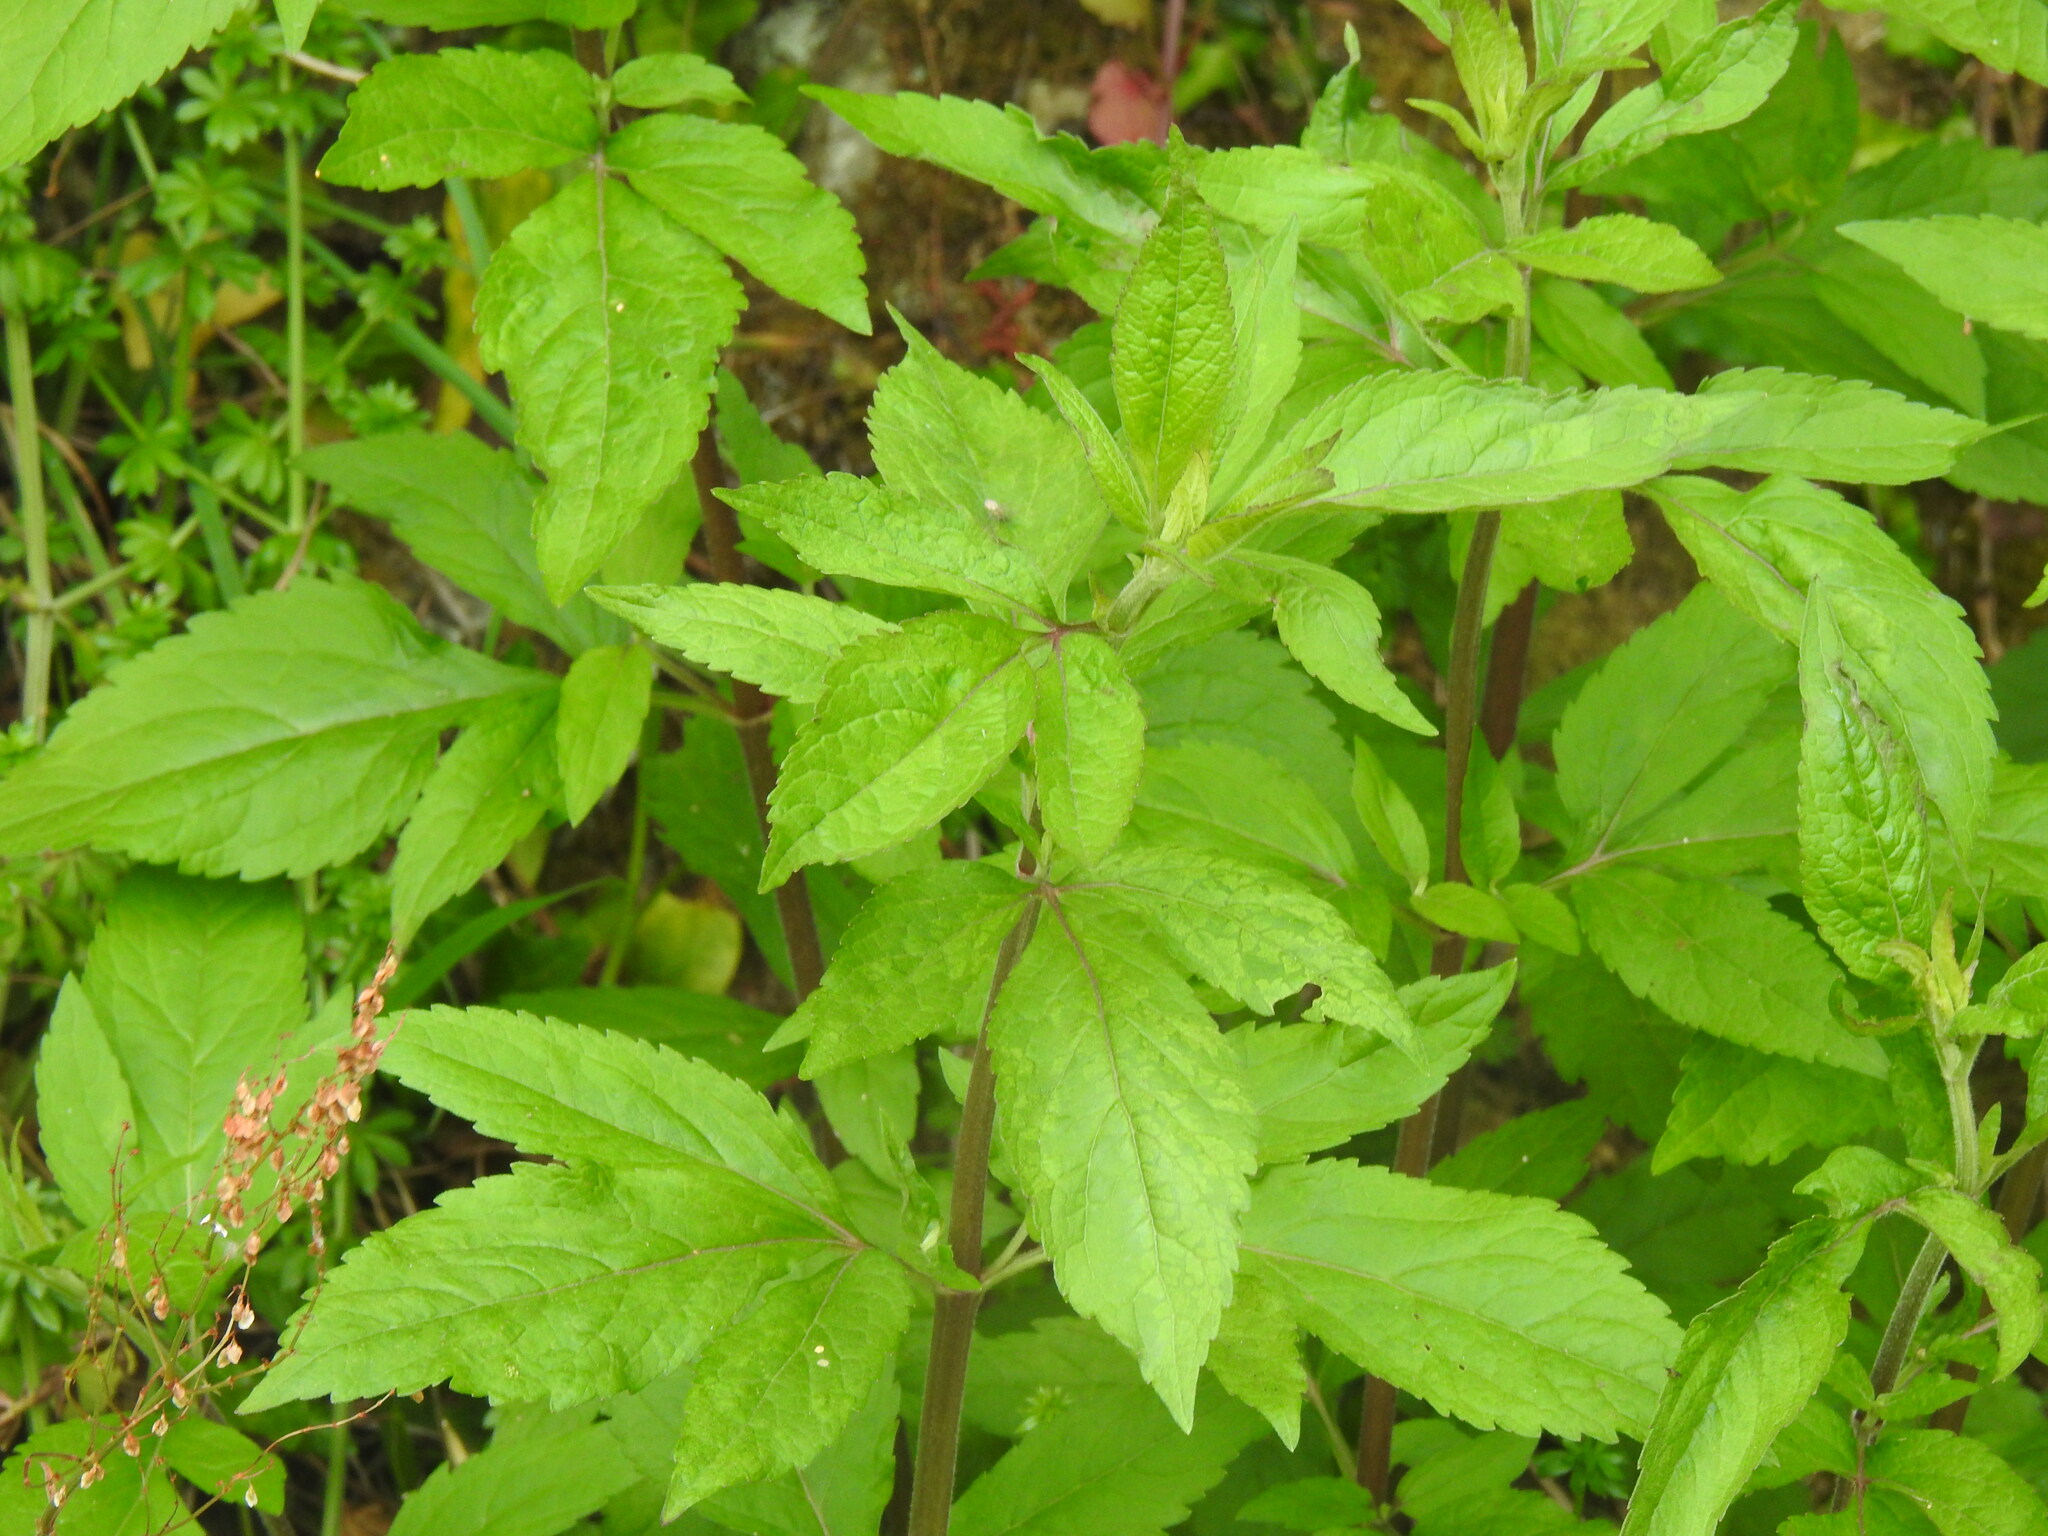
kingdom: Plantae
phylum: Tracheophyta
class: Magnoliopsida
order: Asterales
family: Asteraceae
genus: Eupatorium
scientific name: Eupatorium cannabinum
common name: Hemp-agrimony
